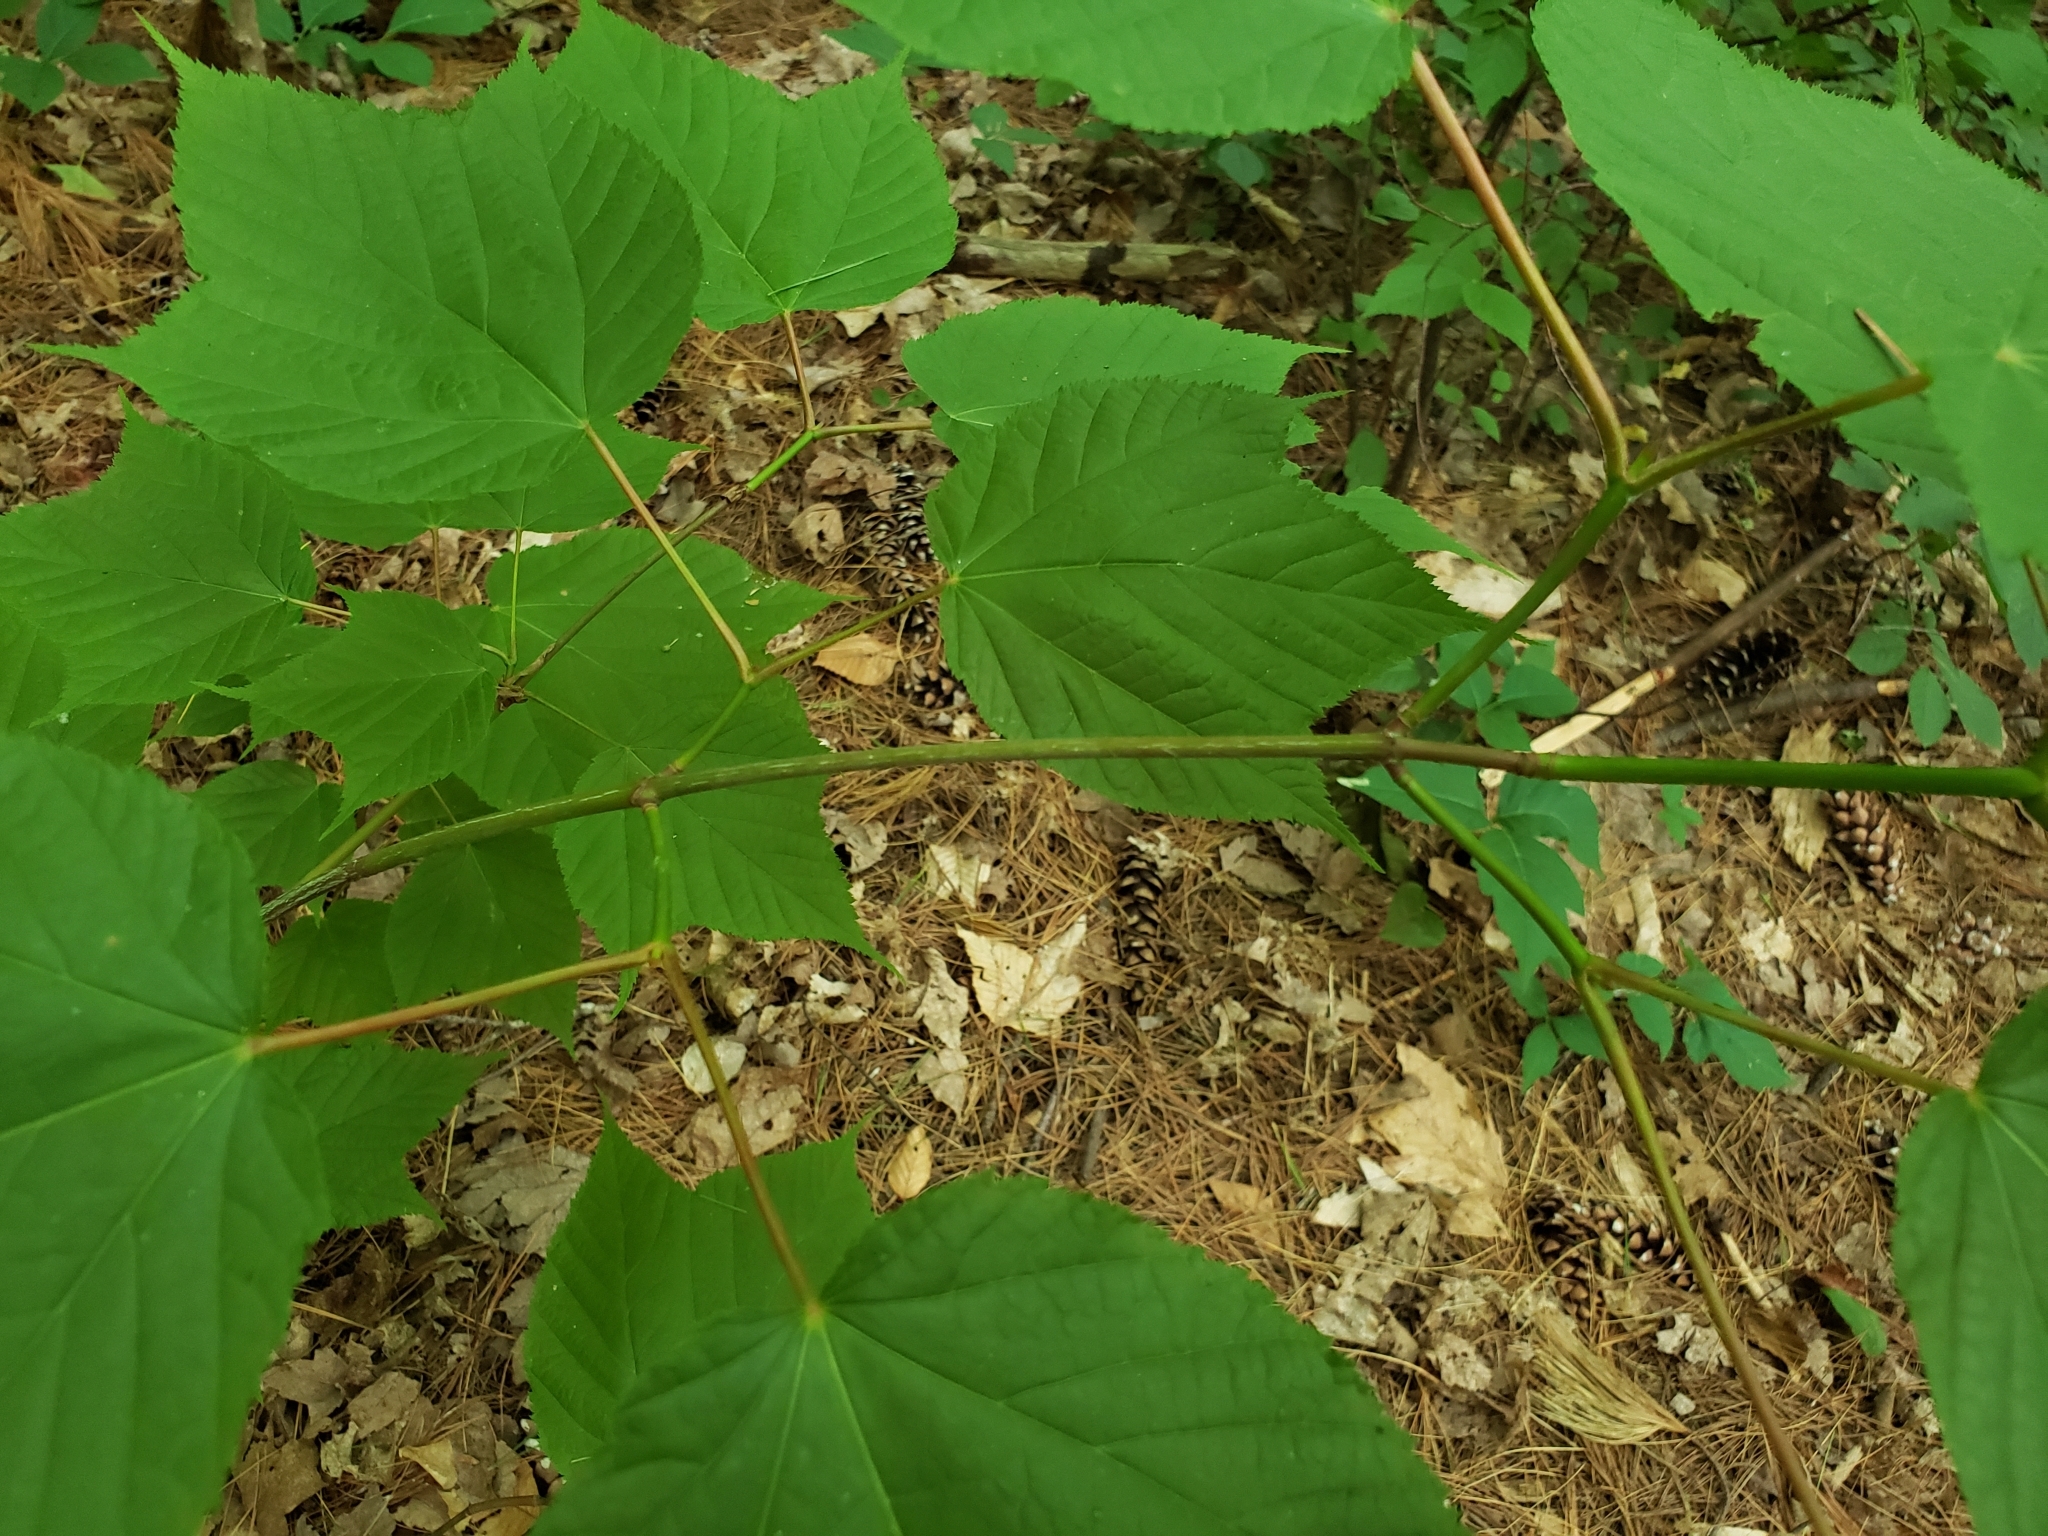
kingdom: Plantae
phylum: Tracheophyta
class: Magnoliopsida
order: Sapindales
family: Sapindaceae
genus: Acer
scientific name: Acer pensylvanicum
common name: Moosewood
